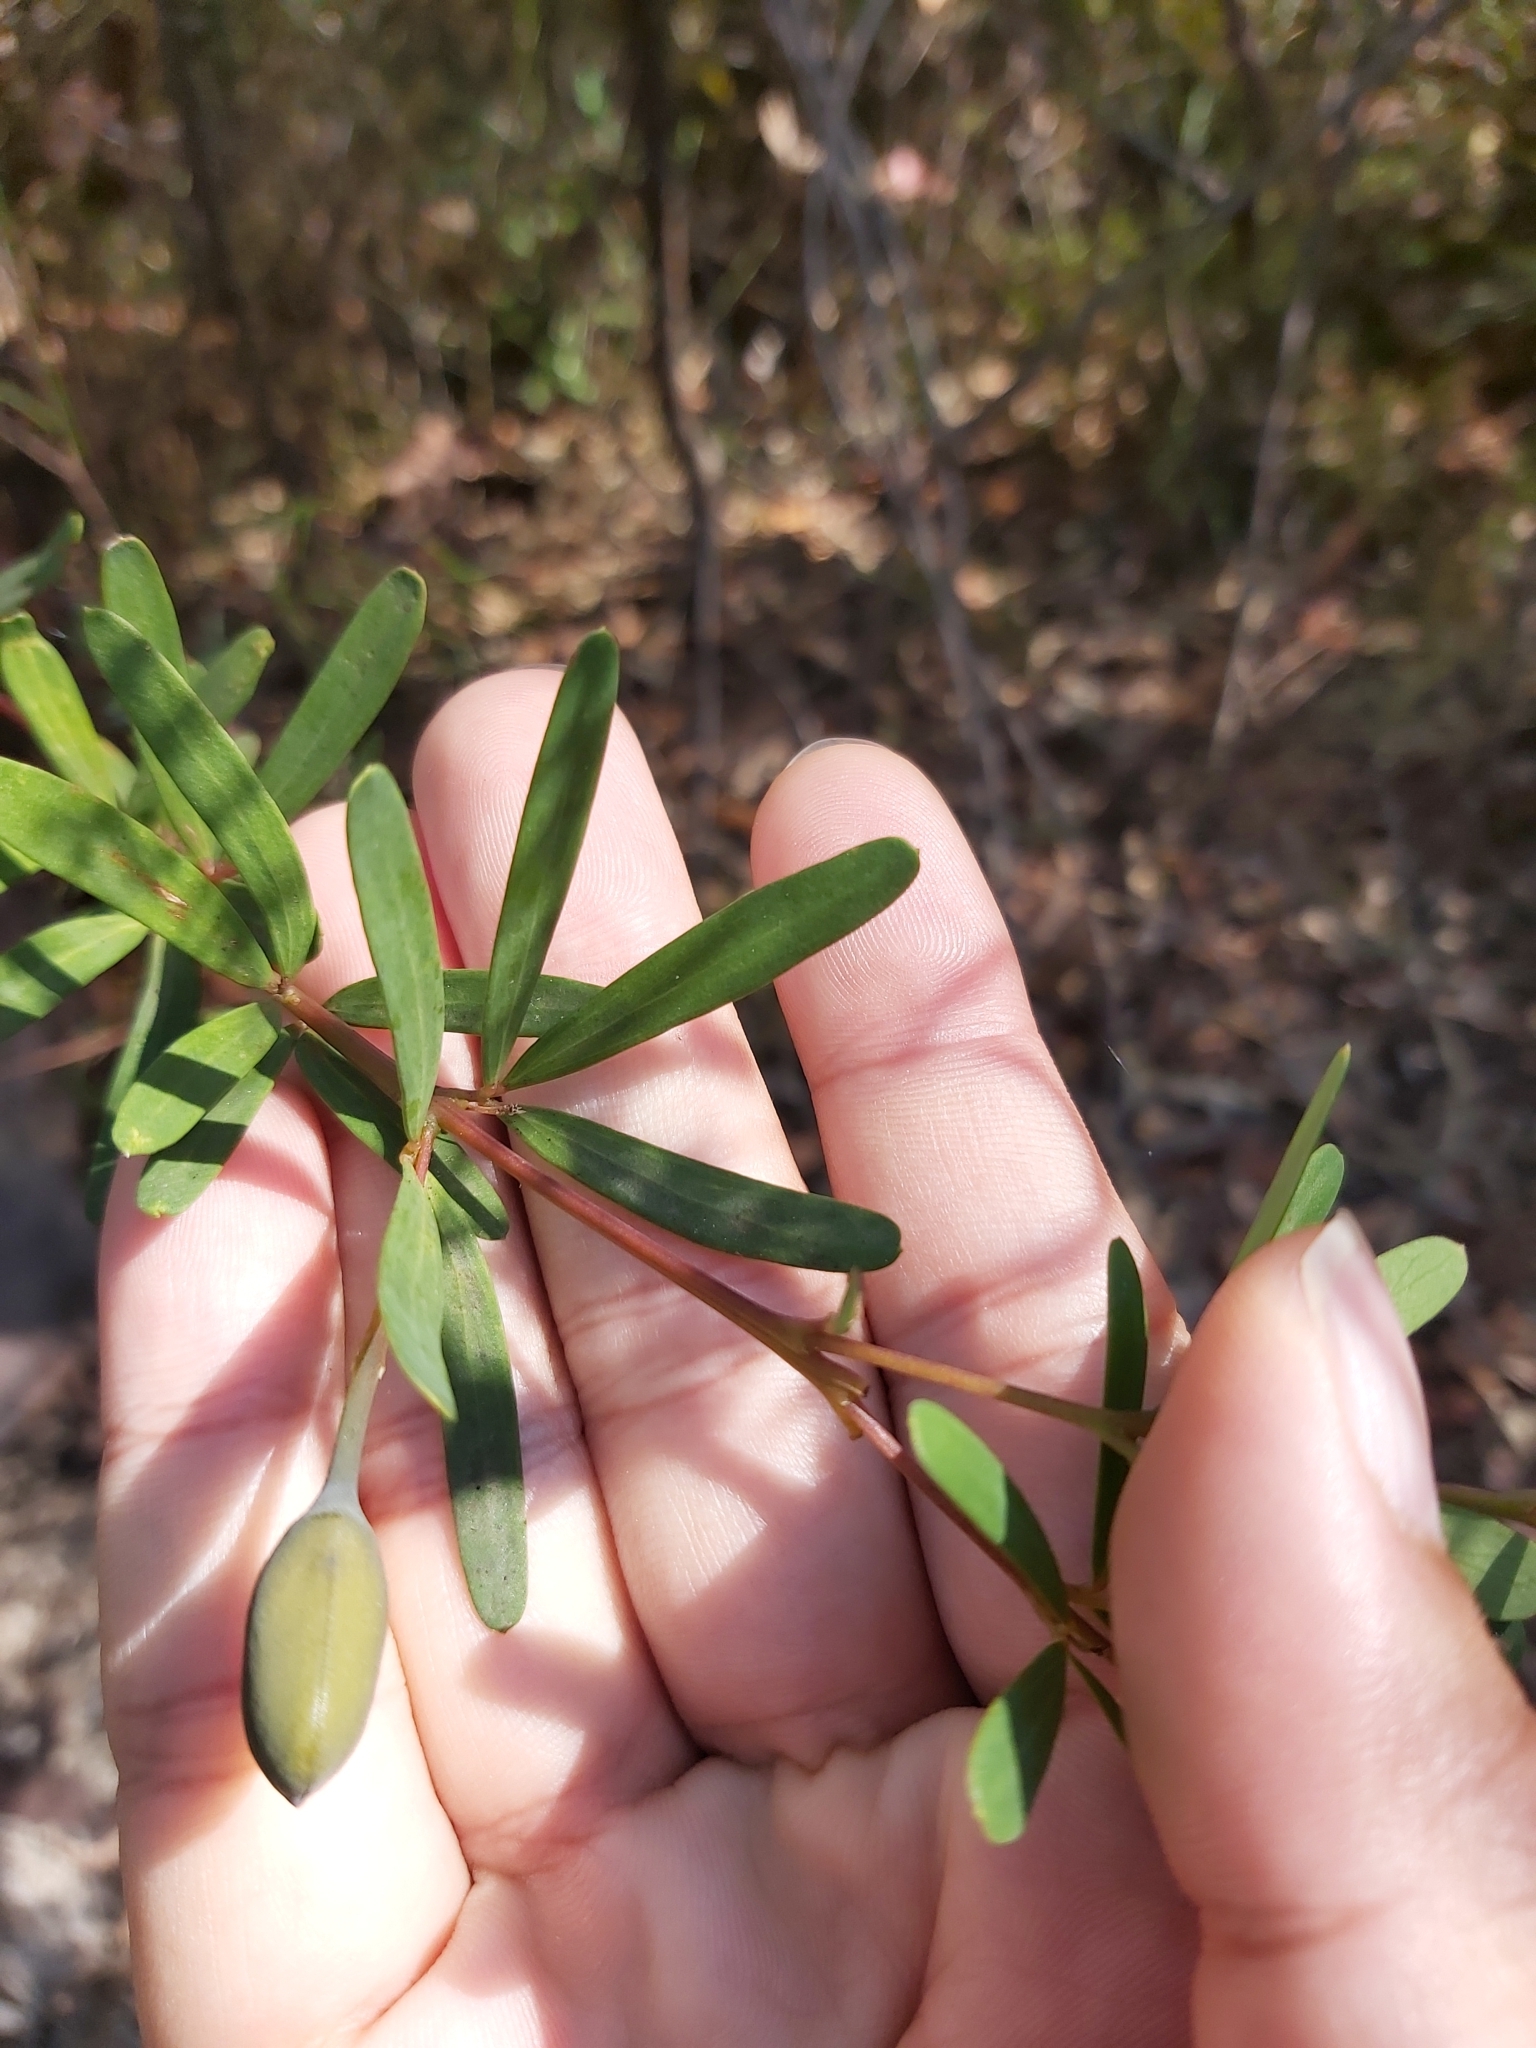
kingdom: Plantae
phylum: Tracheophyta
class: Magnoliopsida
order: Fabales
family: Fabaceae
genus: Gompholobium
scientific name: Gompholobium latifolium
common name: Broadleaf wedge-pea
